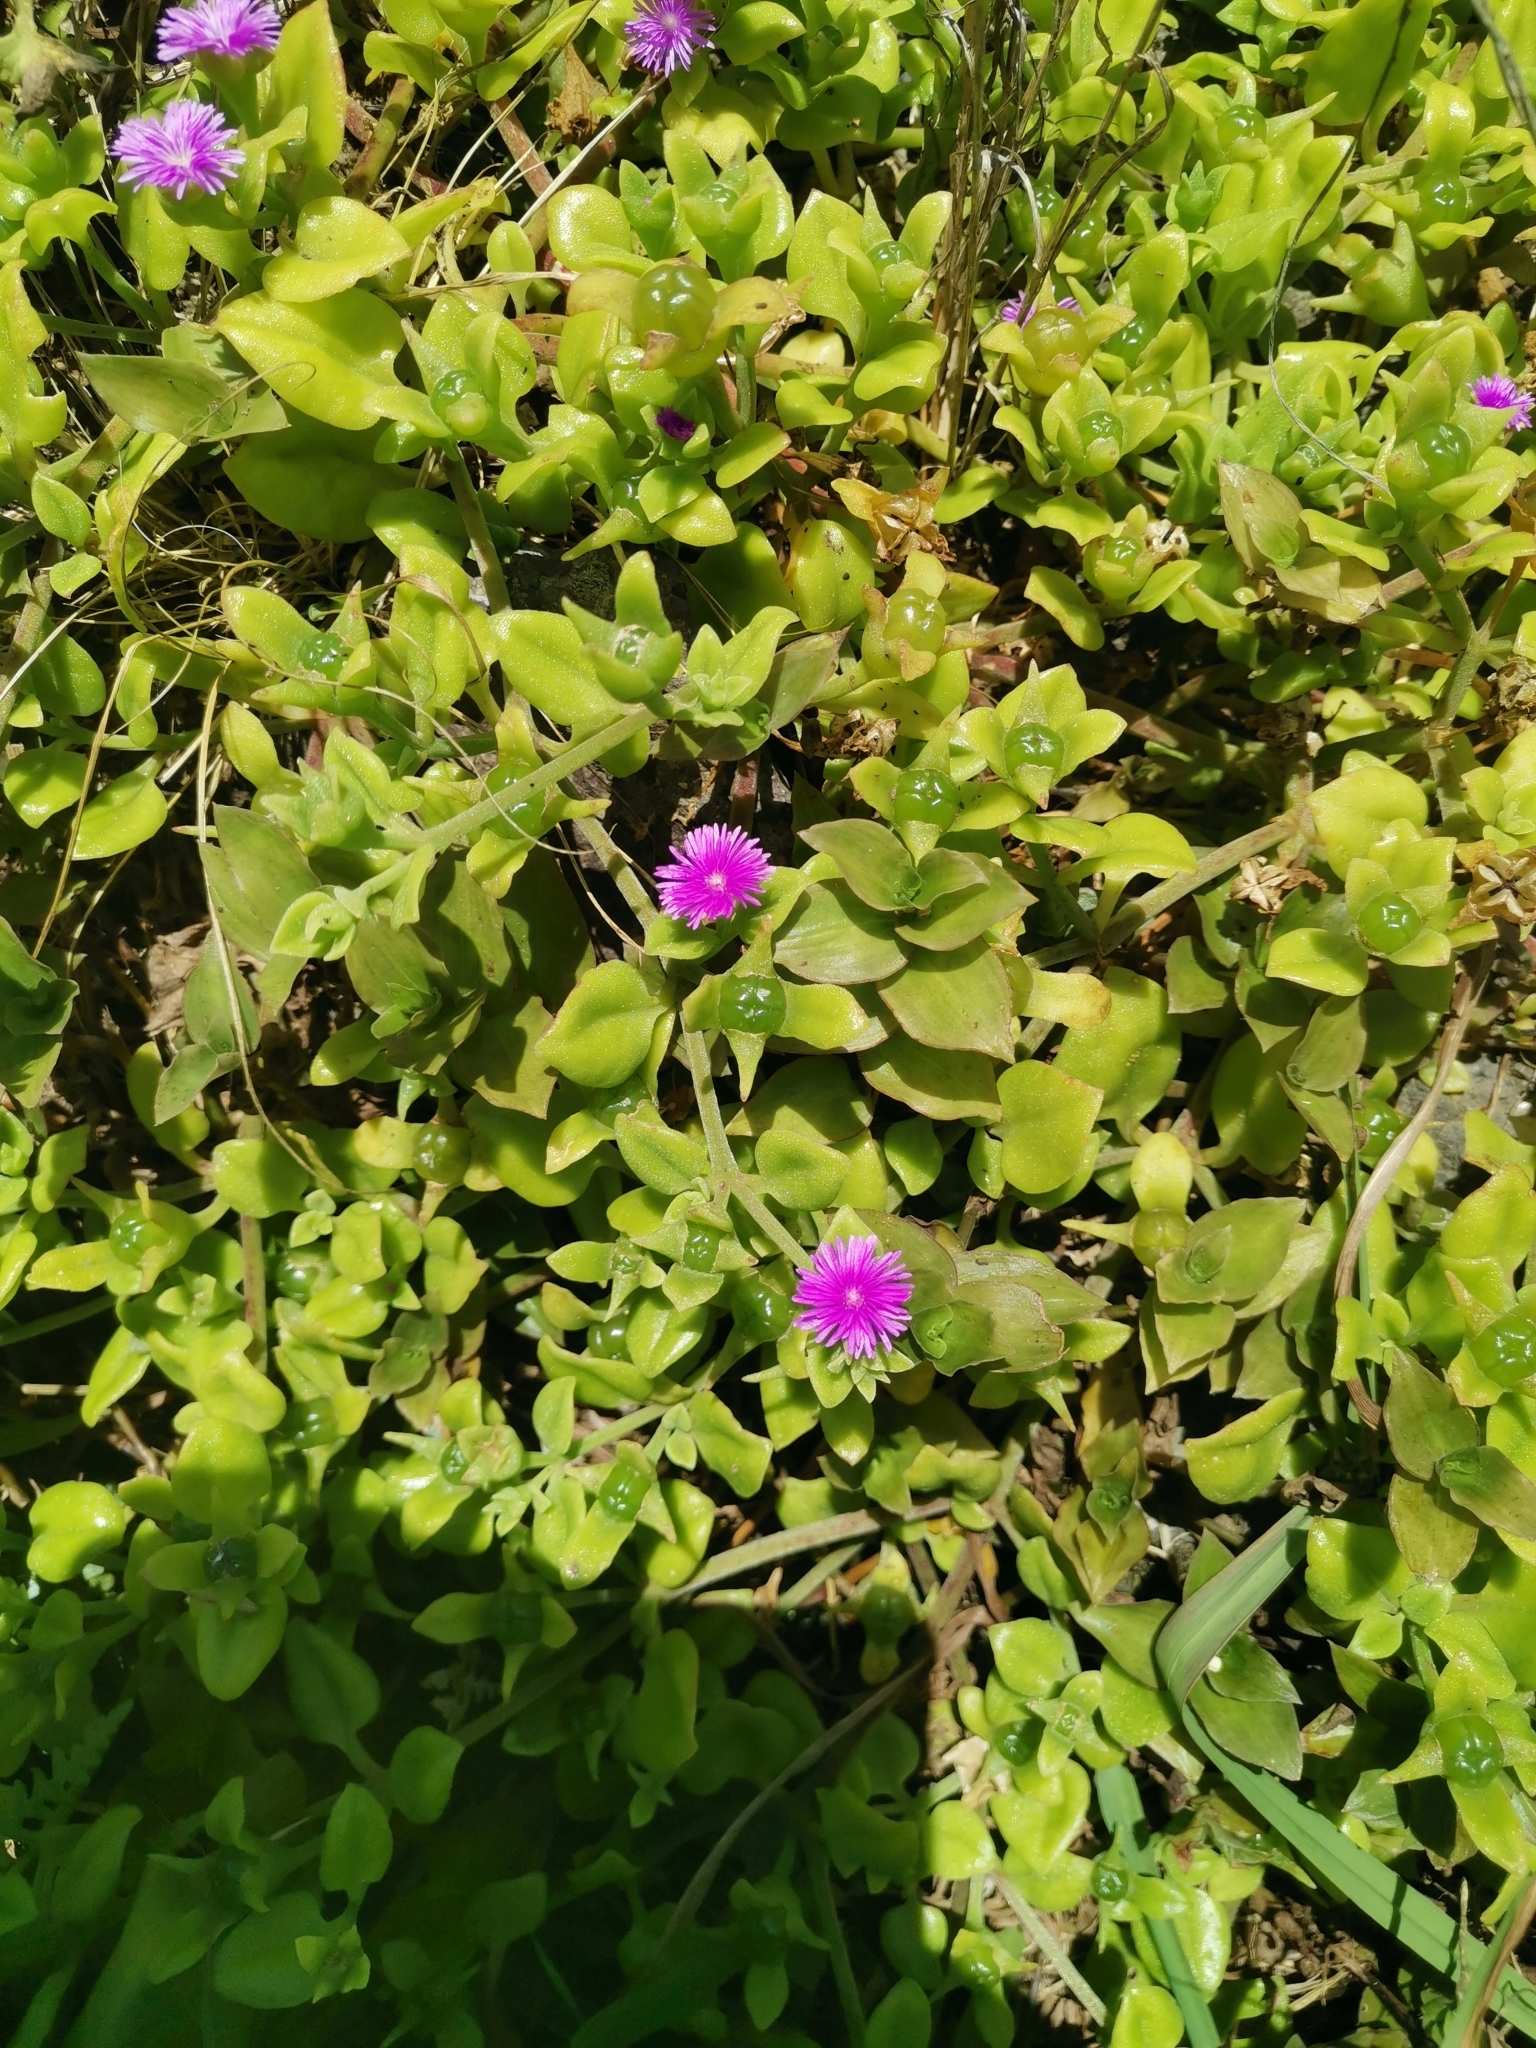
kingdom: Plantae
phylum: Tracheophyta
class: Magnoliopsida
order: Caryophyllales
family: Aizoaceae
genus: Mesembryanthemum
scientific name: Mesembryanthemum cordifolium
